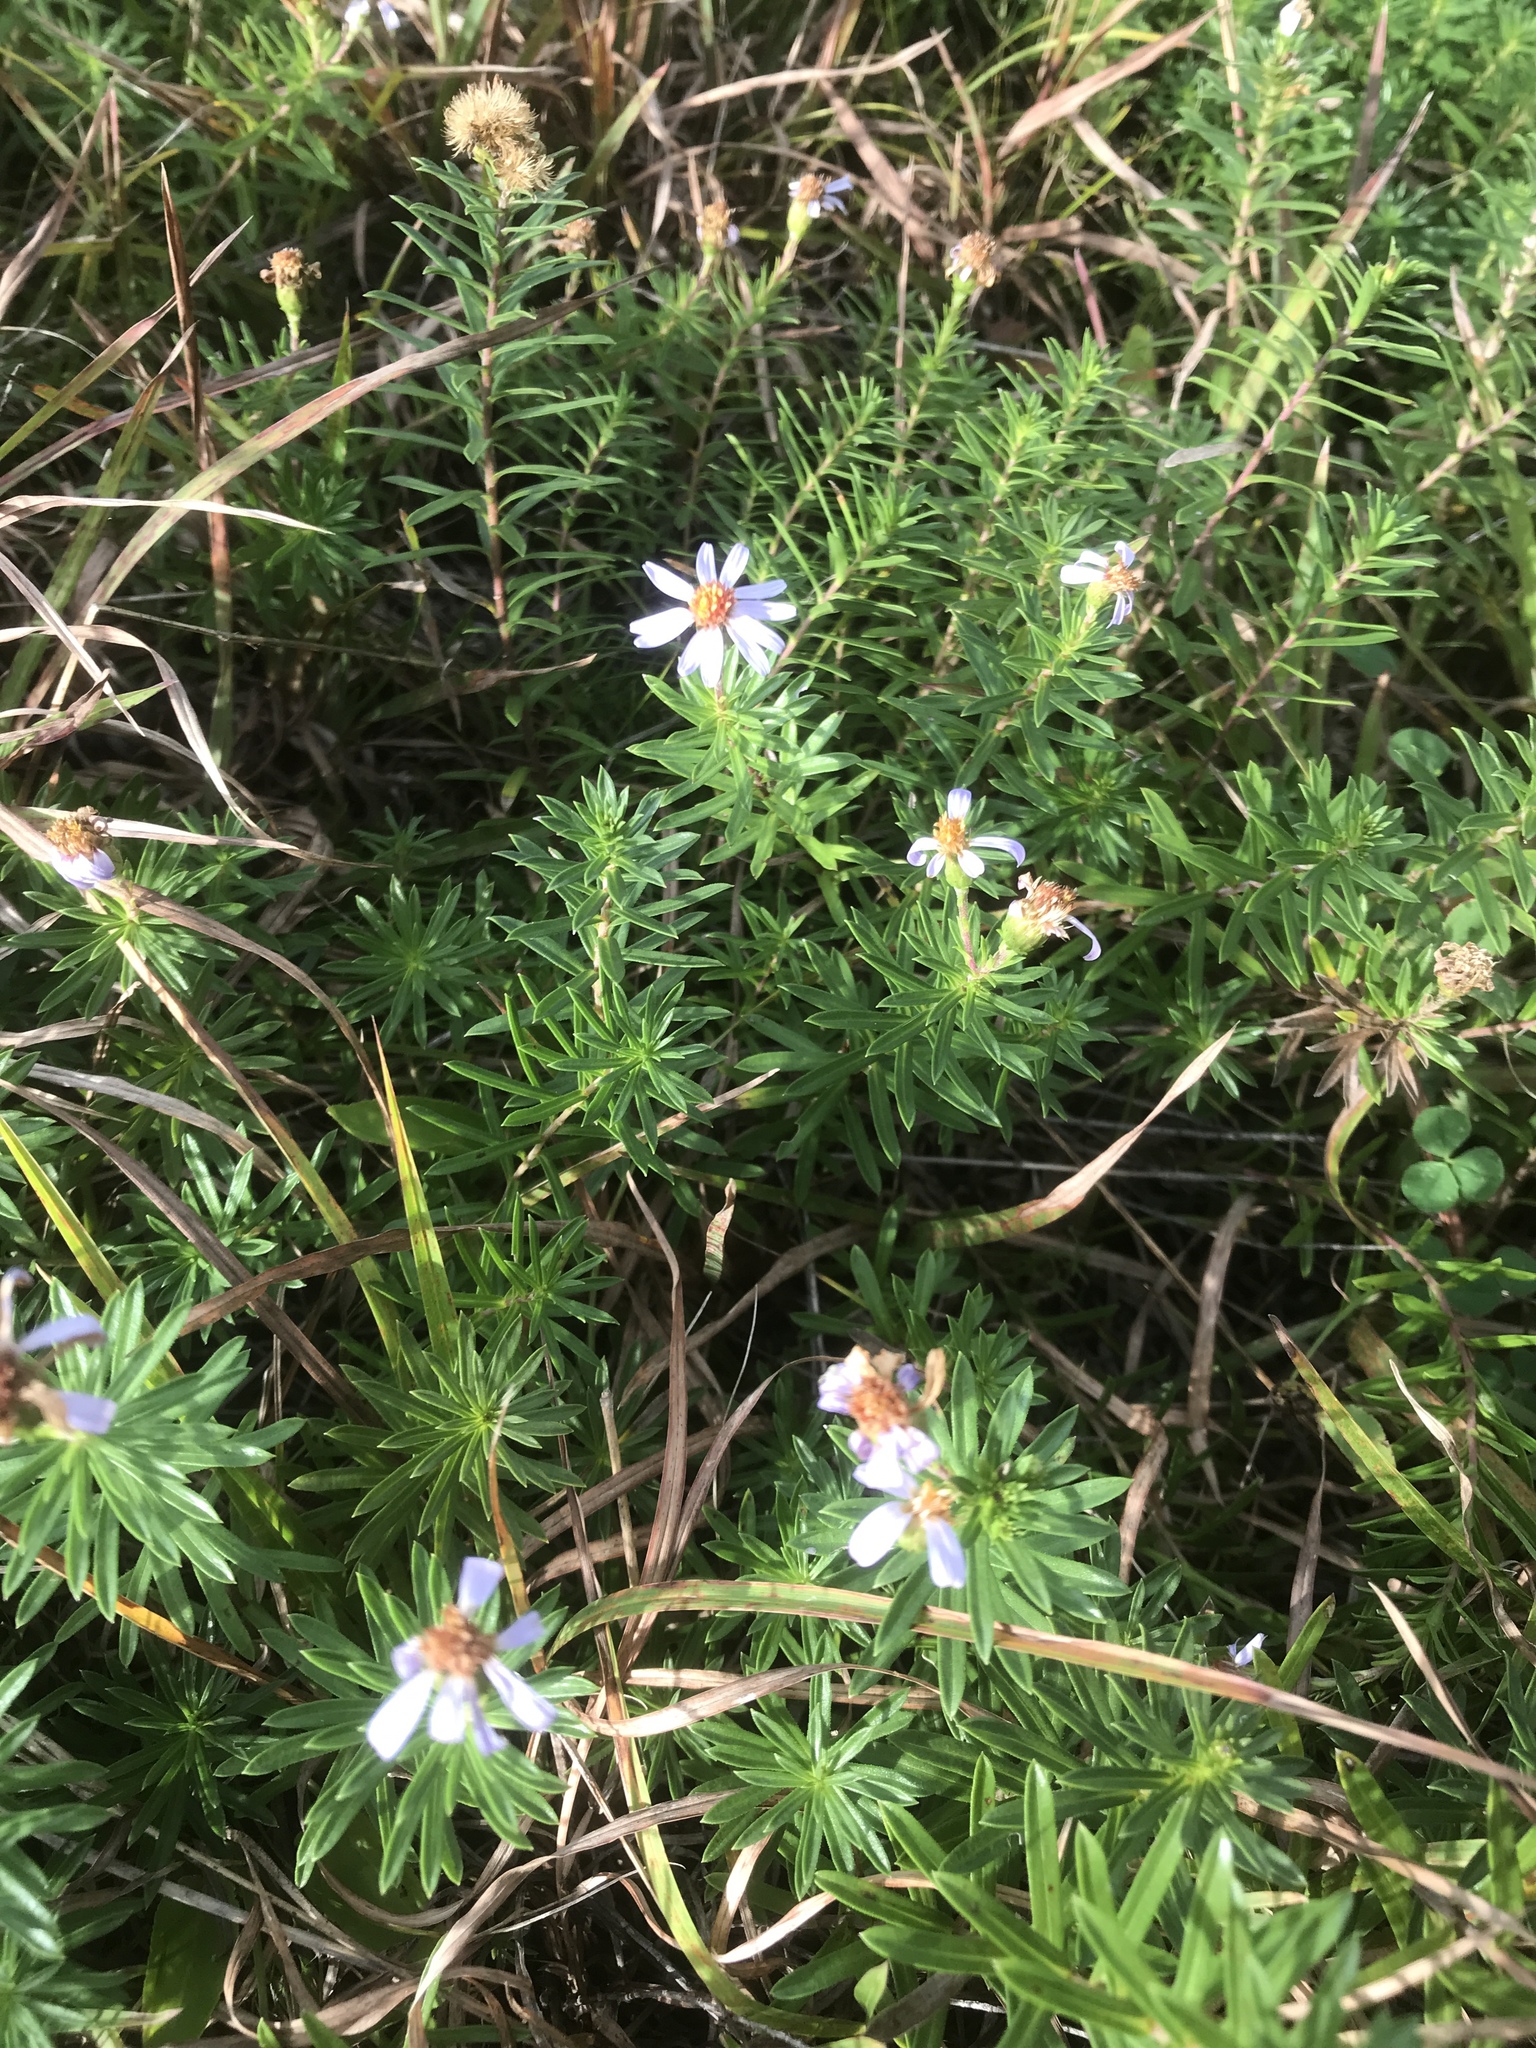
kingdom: Plantae
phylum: Tracheophyta
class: Magnoliopsida
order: Asterales
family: Asteraceae
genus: Ionactis
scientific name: Ionactis linariifolia
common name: Flax-leaf aster
